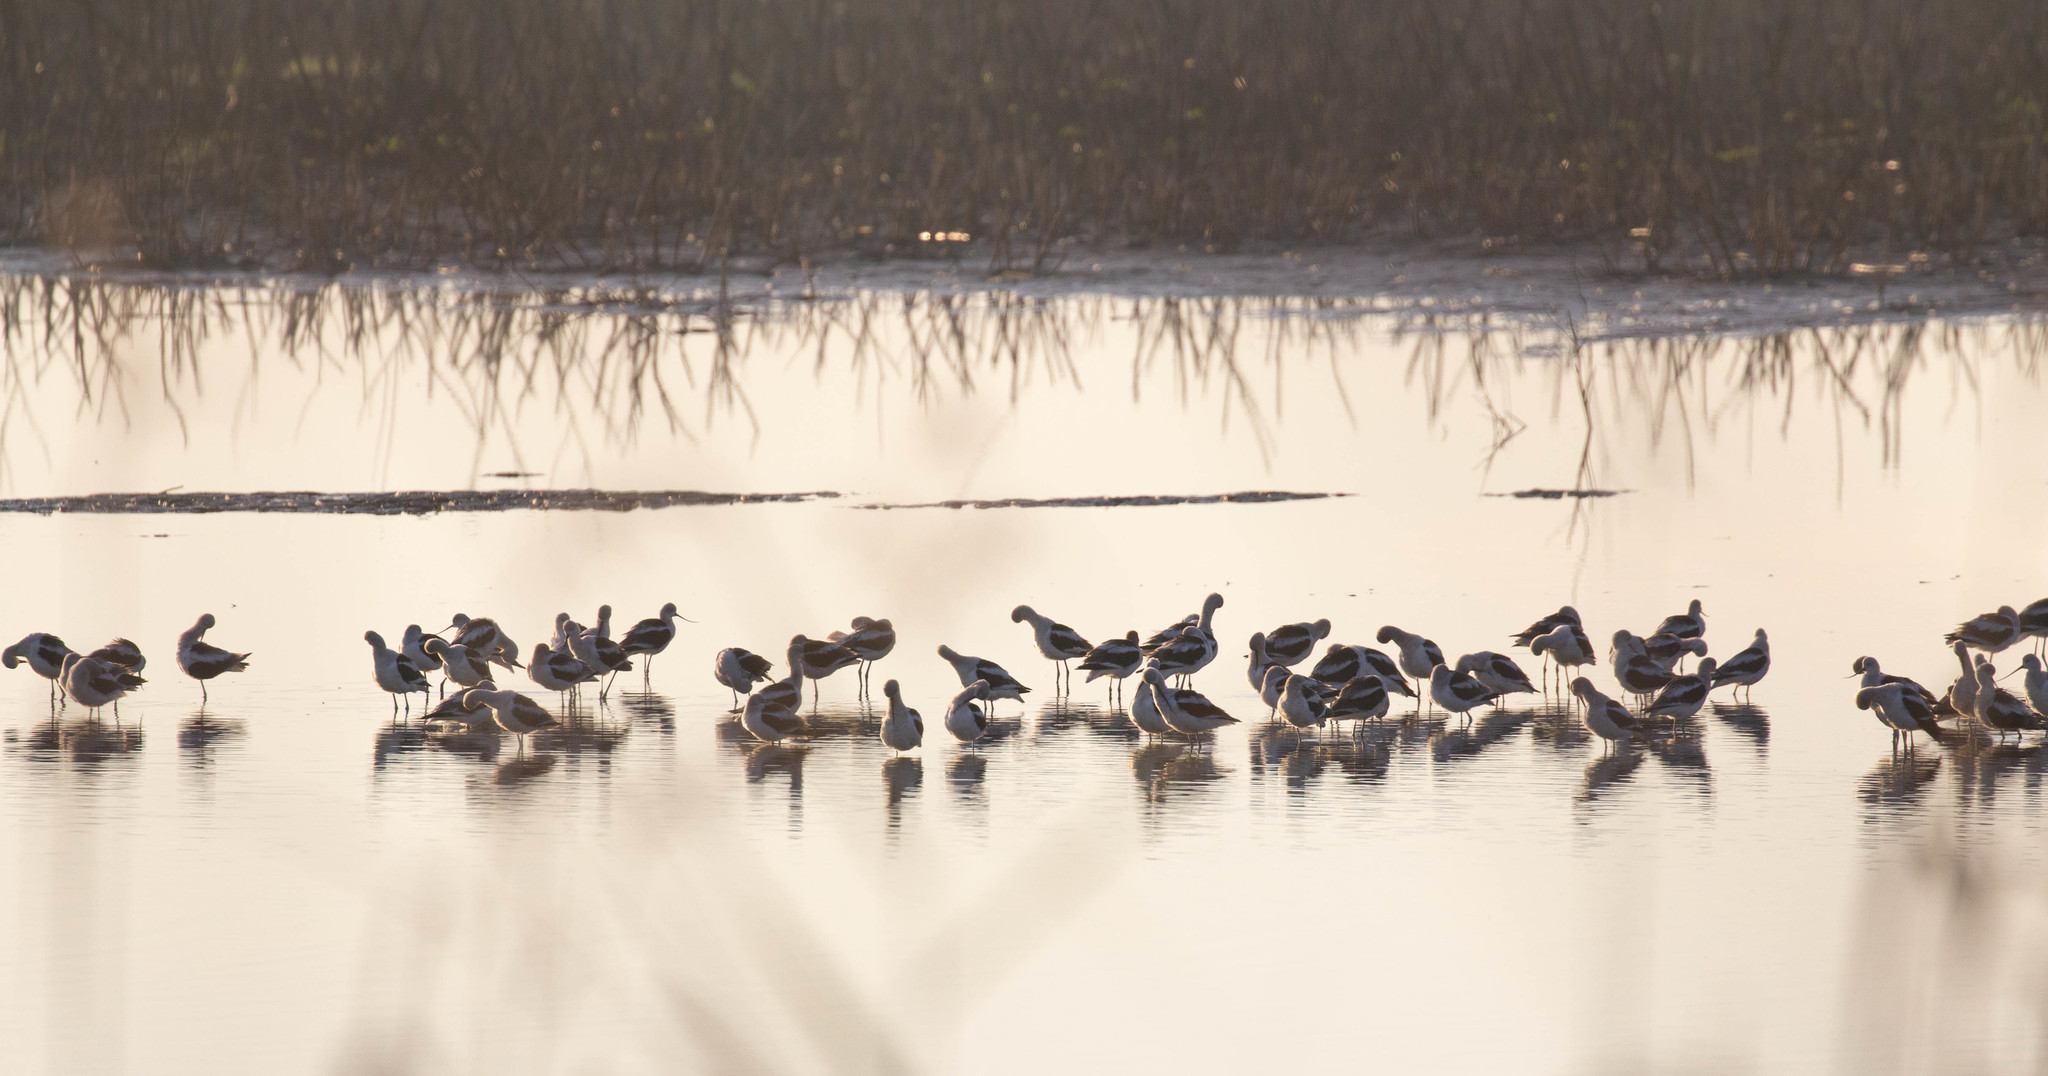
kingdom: Animalia
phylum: Chordata
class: Aves
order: Charadriiformes
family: Recurvirostridae
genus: Recurvirostra
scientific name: Recurvirostra americana
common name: American avocet
